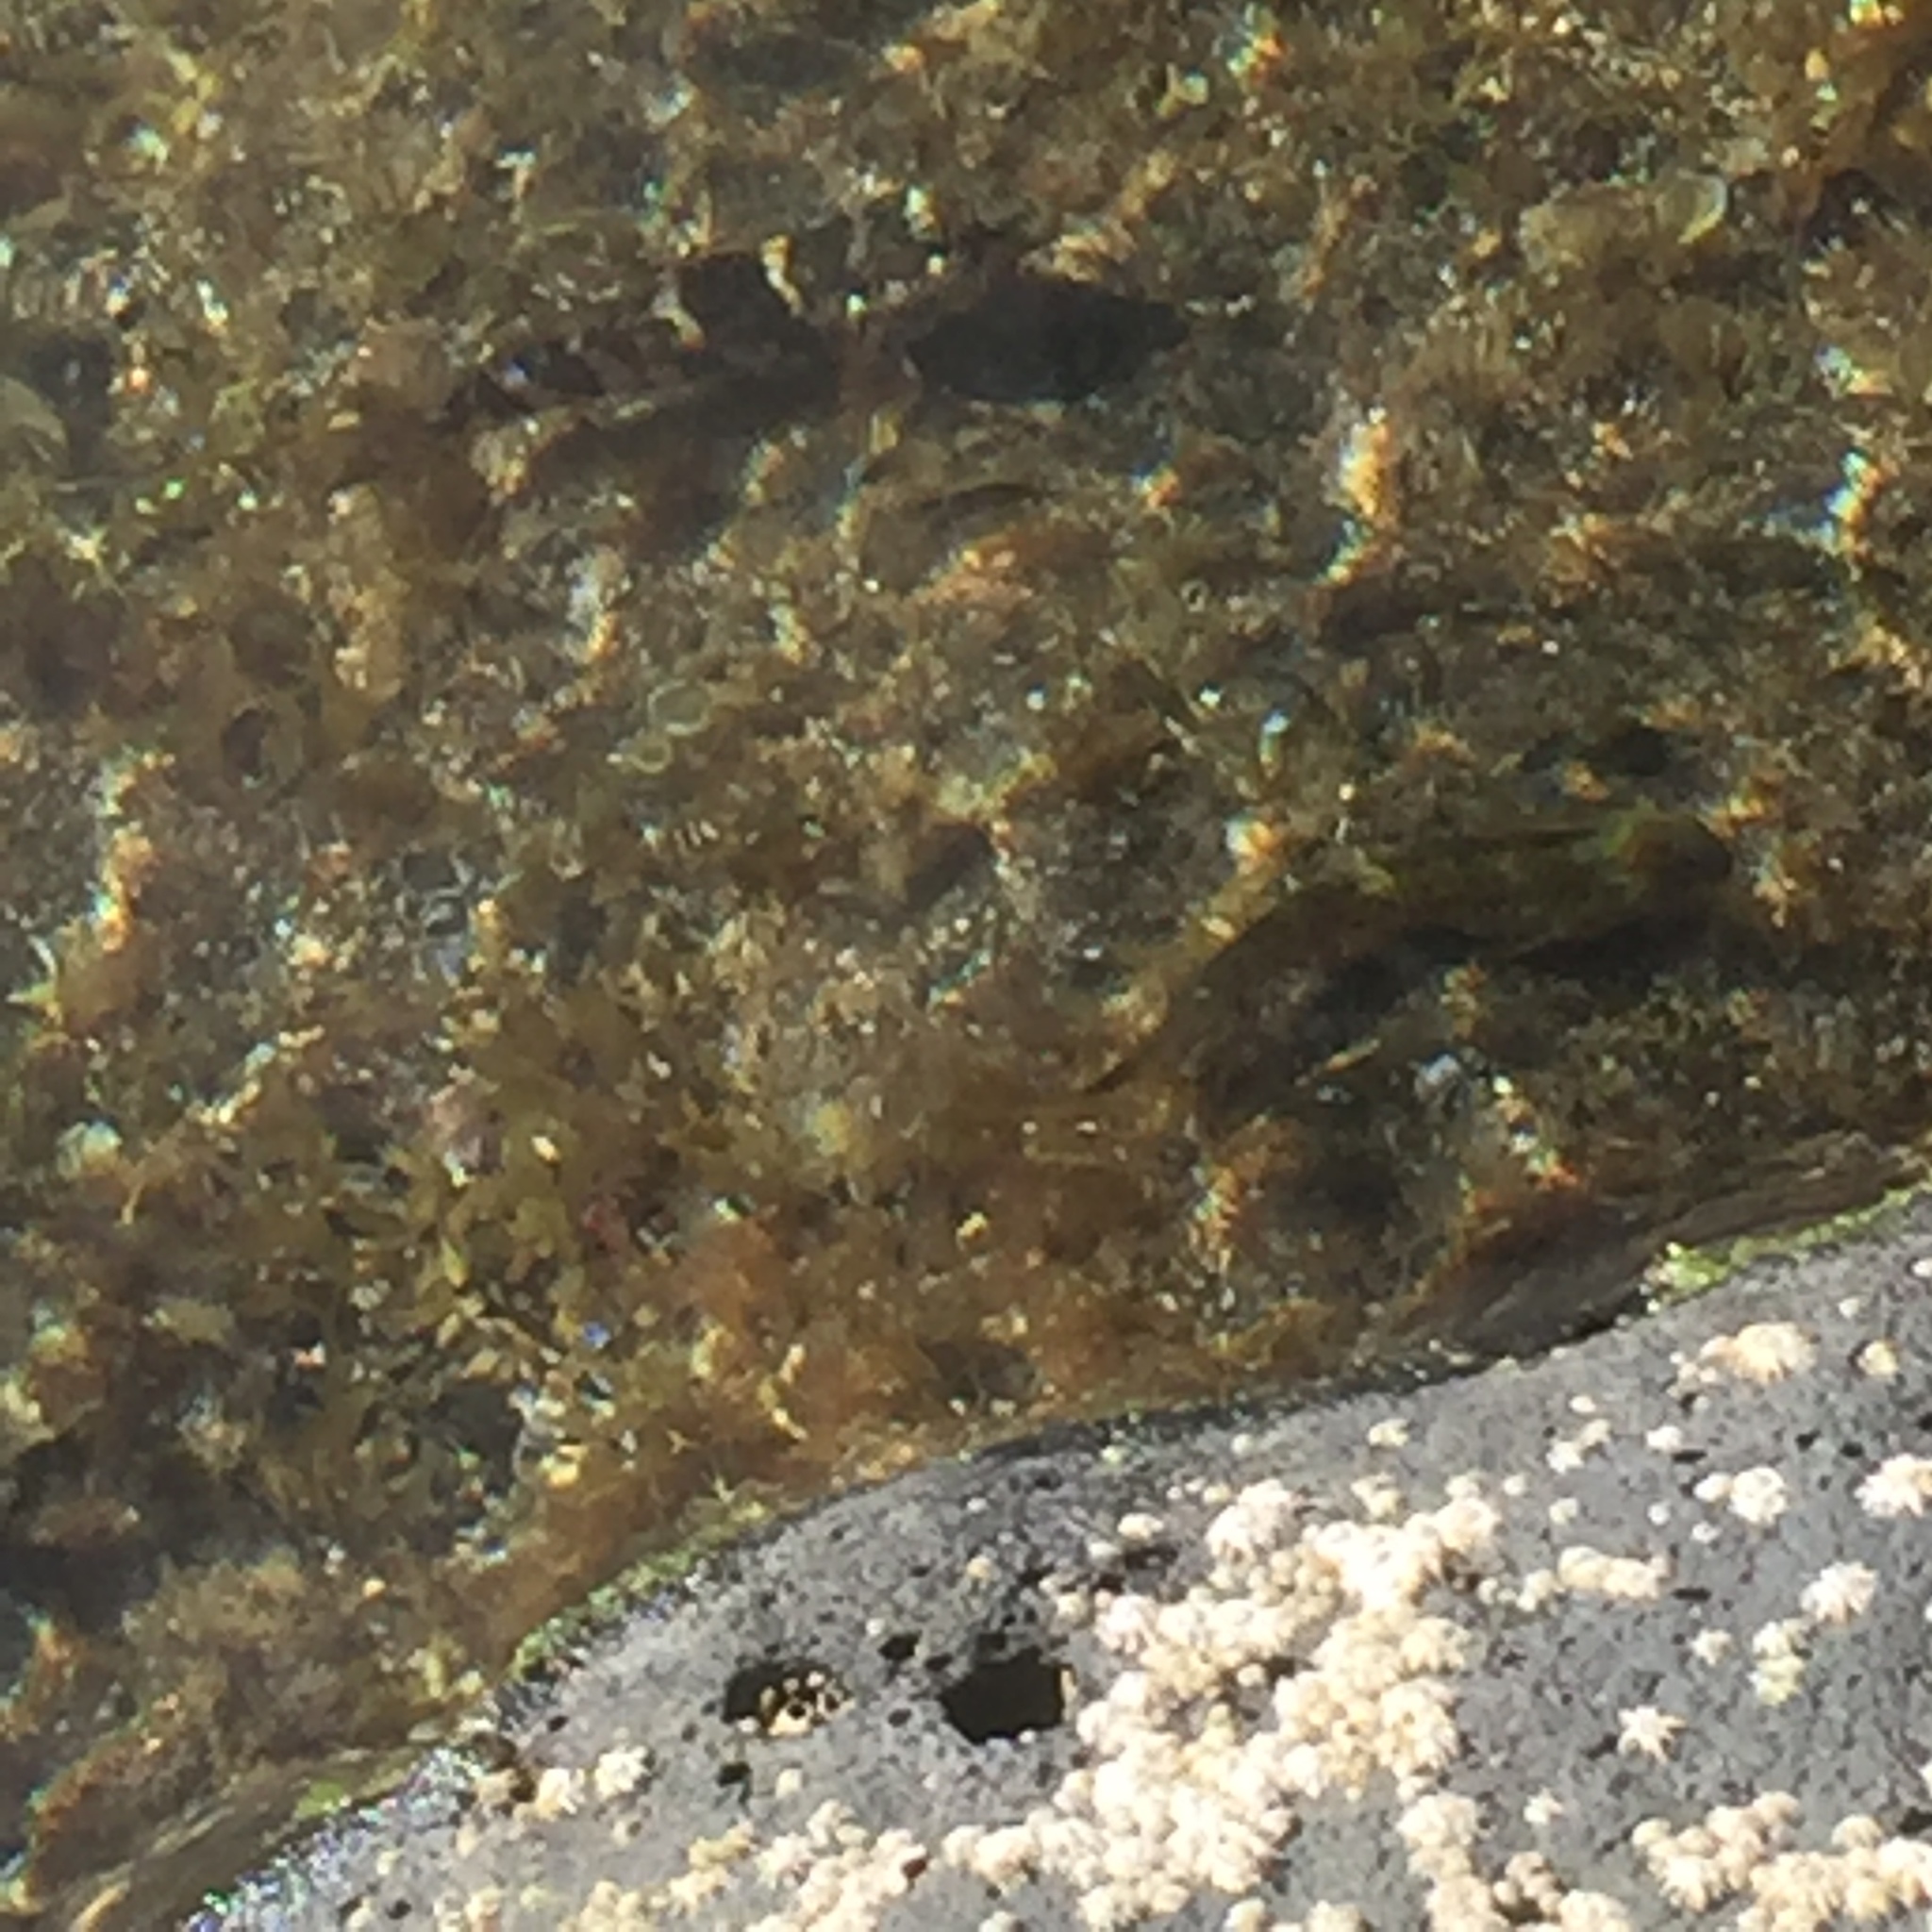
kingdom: Animalia
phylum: Chordata
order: Perciformes
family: Gobiidae
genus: Mauligobius
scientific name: Mauligobius maderensis
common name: Rock goby
